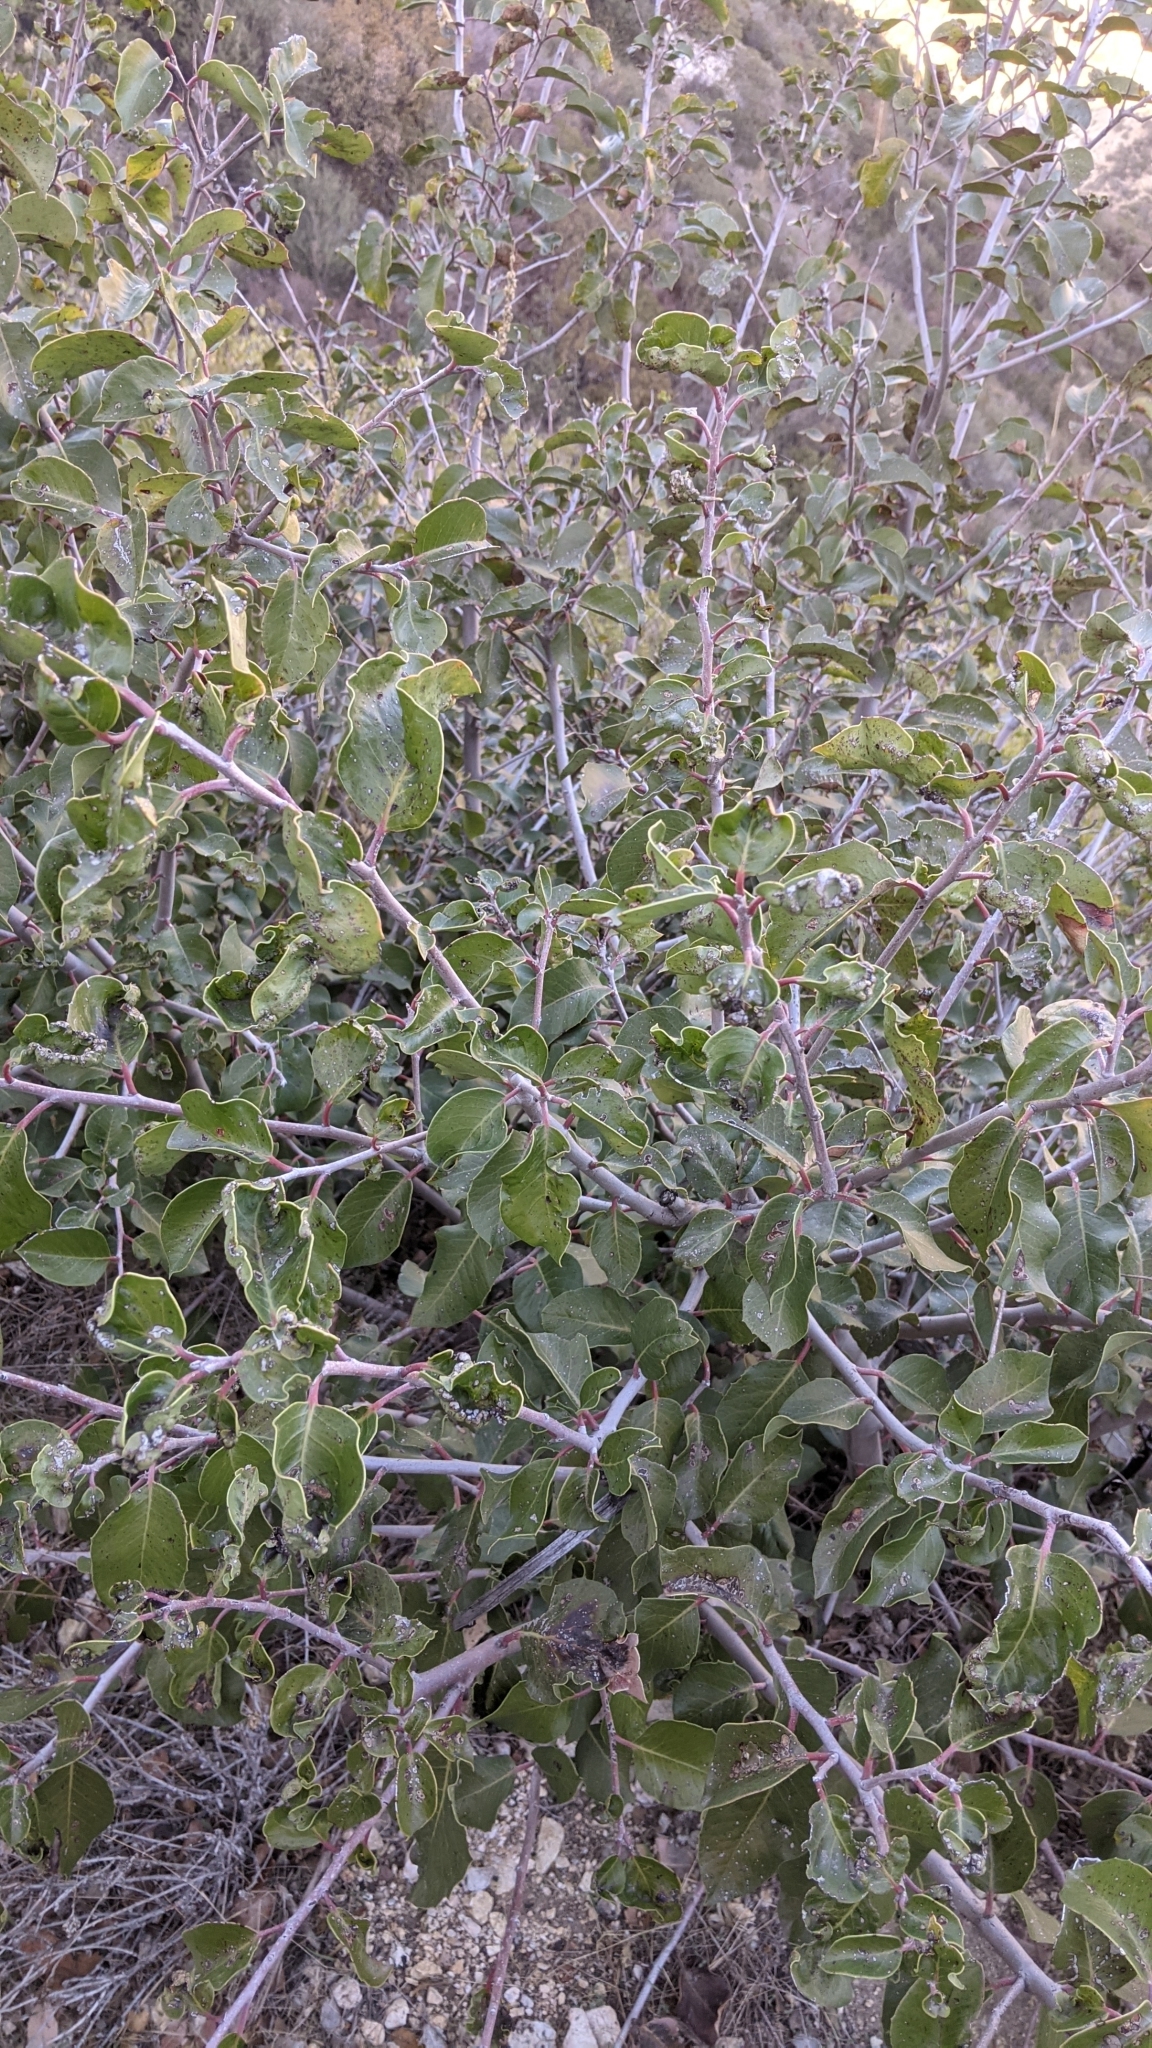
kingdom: Plantae
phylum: Tracheophyta
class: Magnoliopsida
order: Sapindales
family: Anacardiaceae
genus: Rhus
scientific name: Rhus ovata
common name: Sugar sumac
